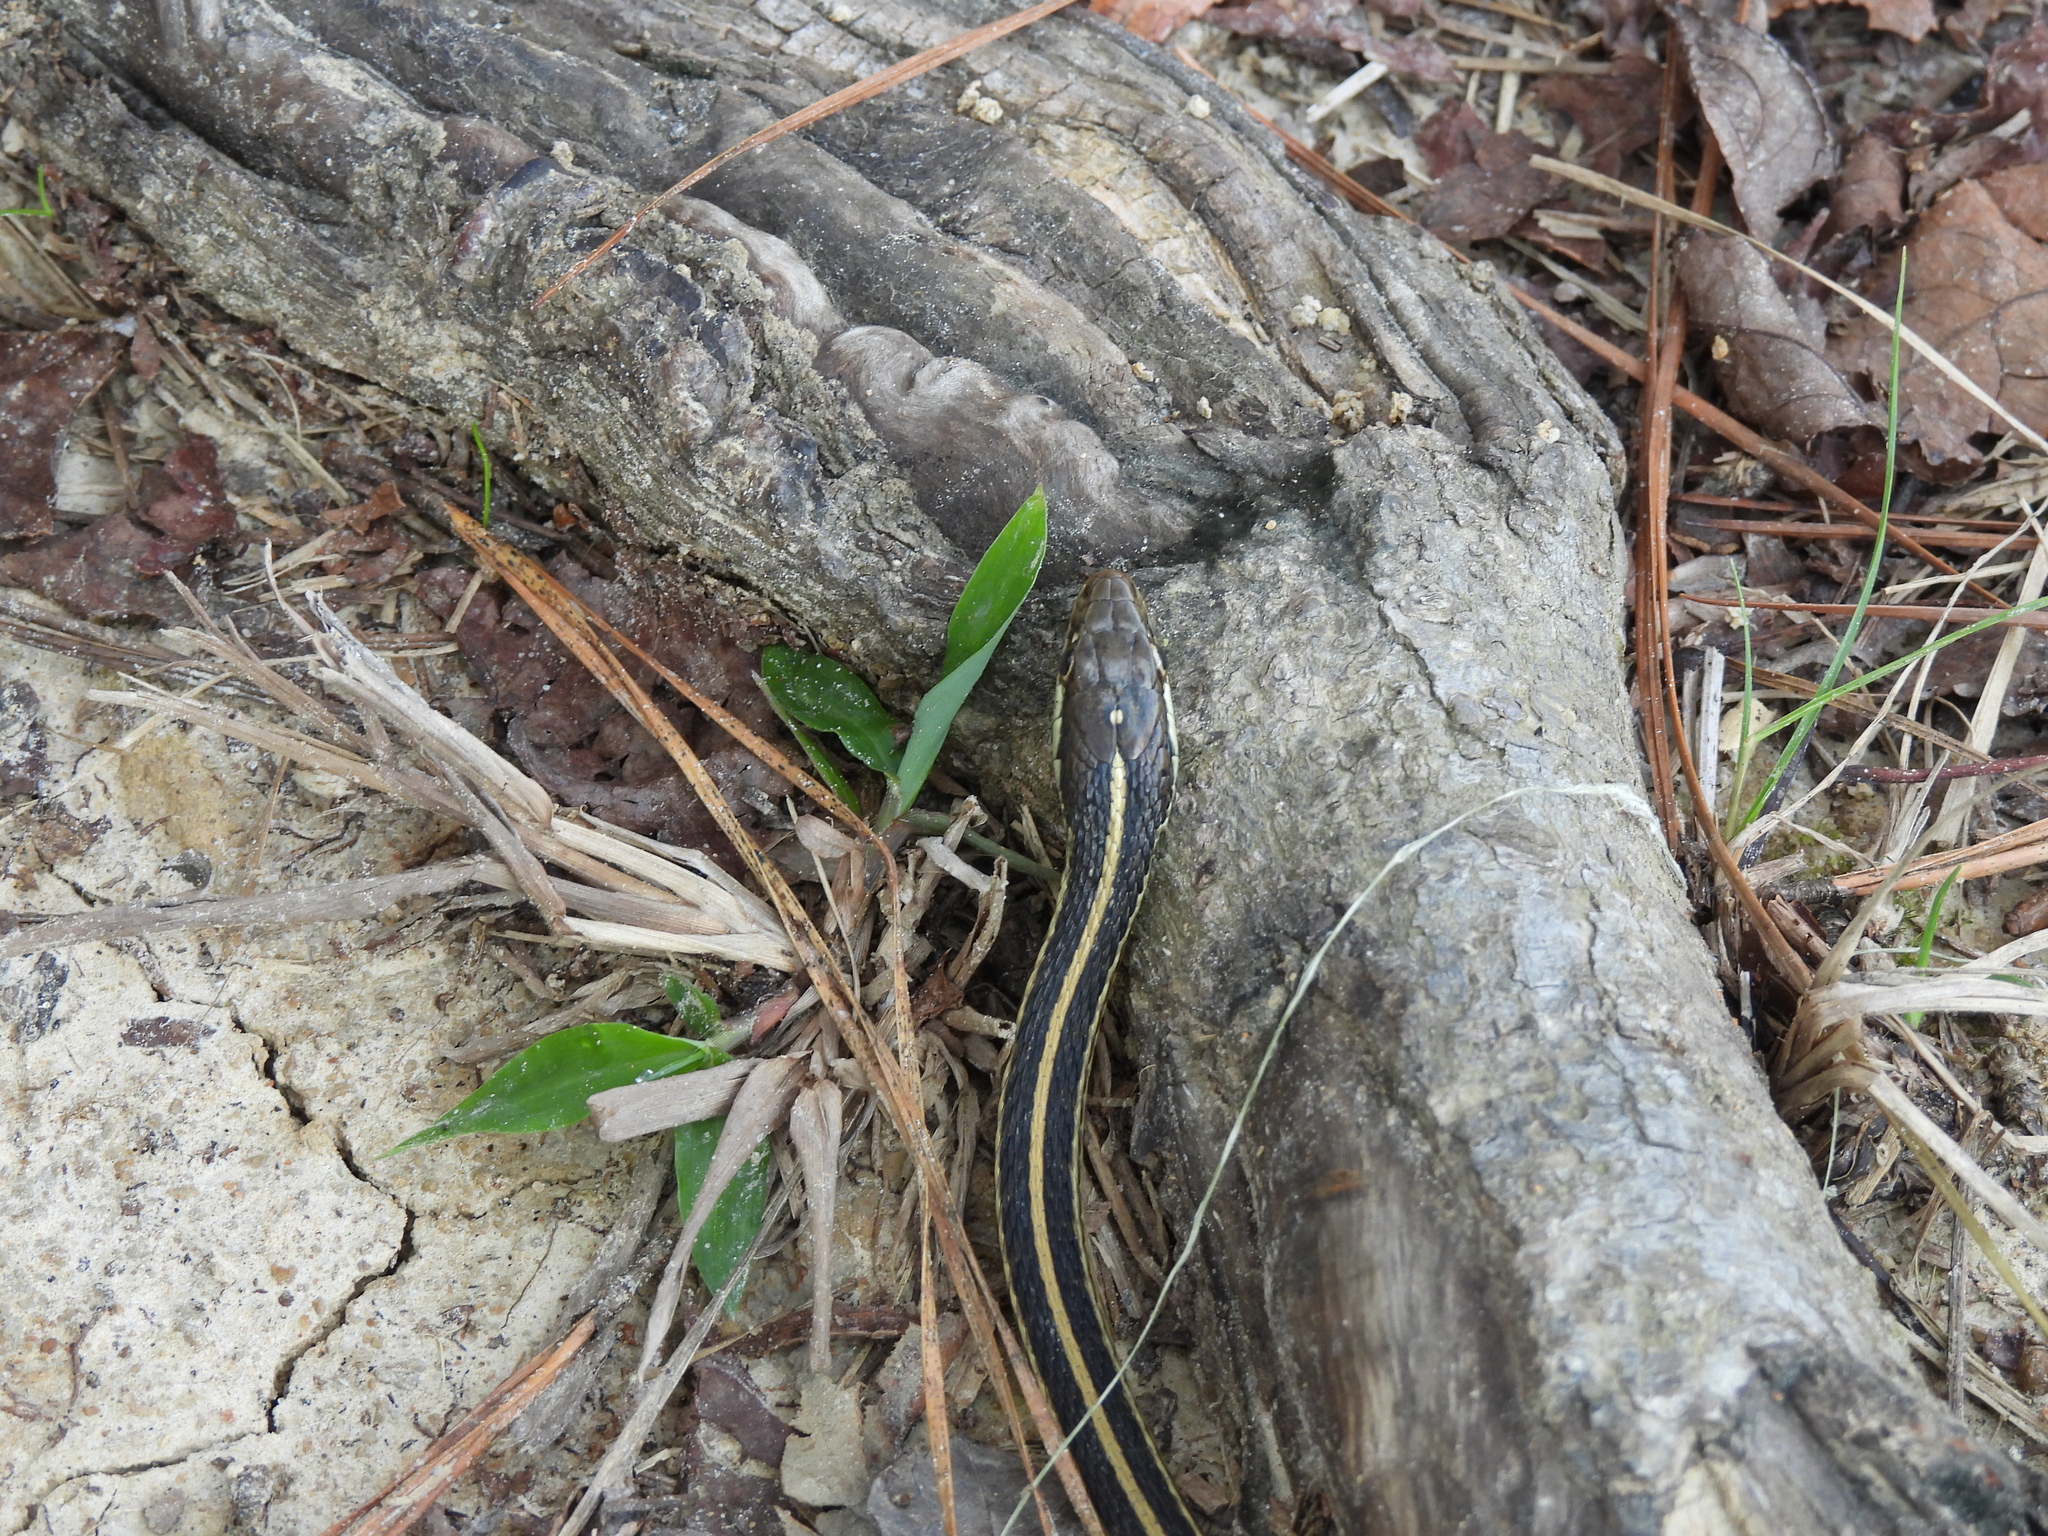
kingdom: Animalia
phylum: Chordata
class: Squamata
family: Colubridae
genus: Thamnophis
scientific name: Thamnophis proximus
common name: Western ribbon snake
